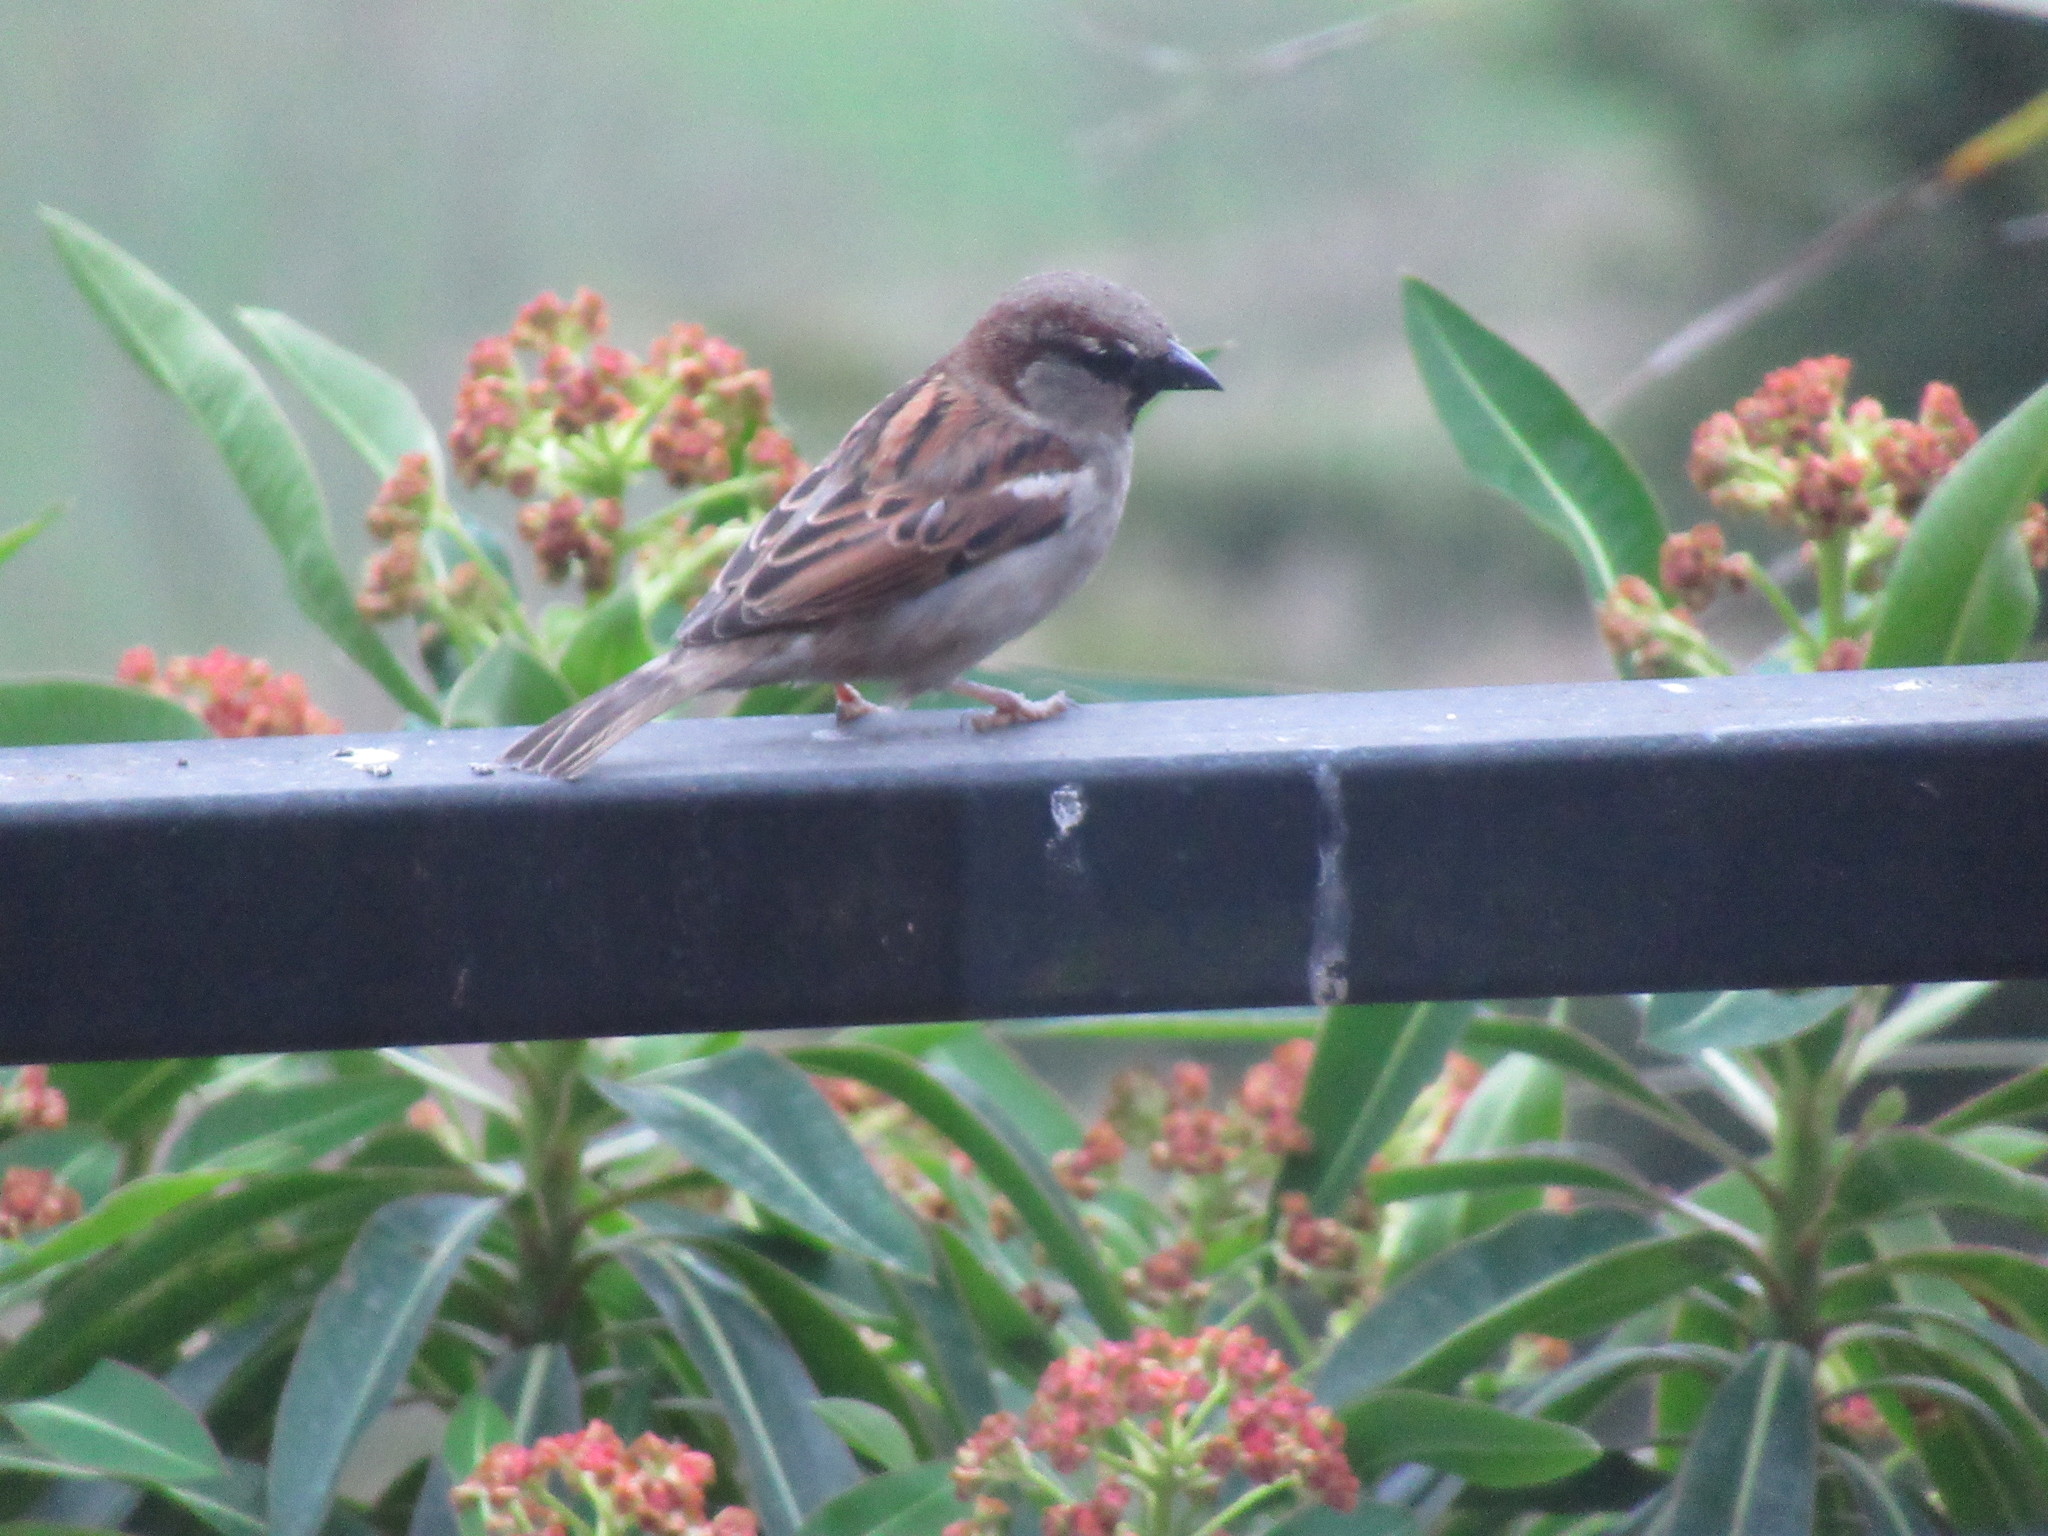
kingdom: Animalia
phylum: Chordata
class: Aves
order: Passeriformes
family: Passeridae
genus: Passer
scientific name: Passer domesticus
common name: House sparrow
